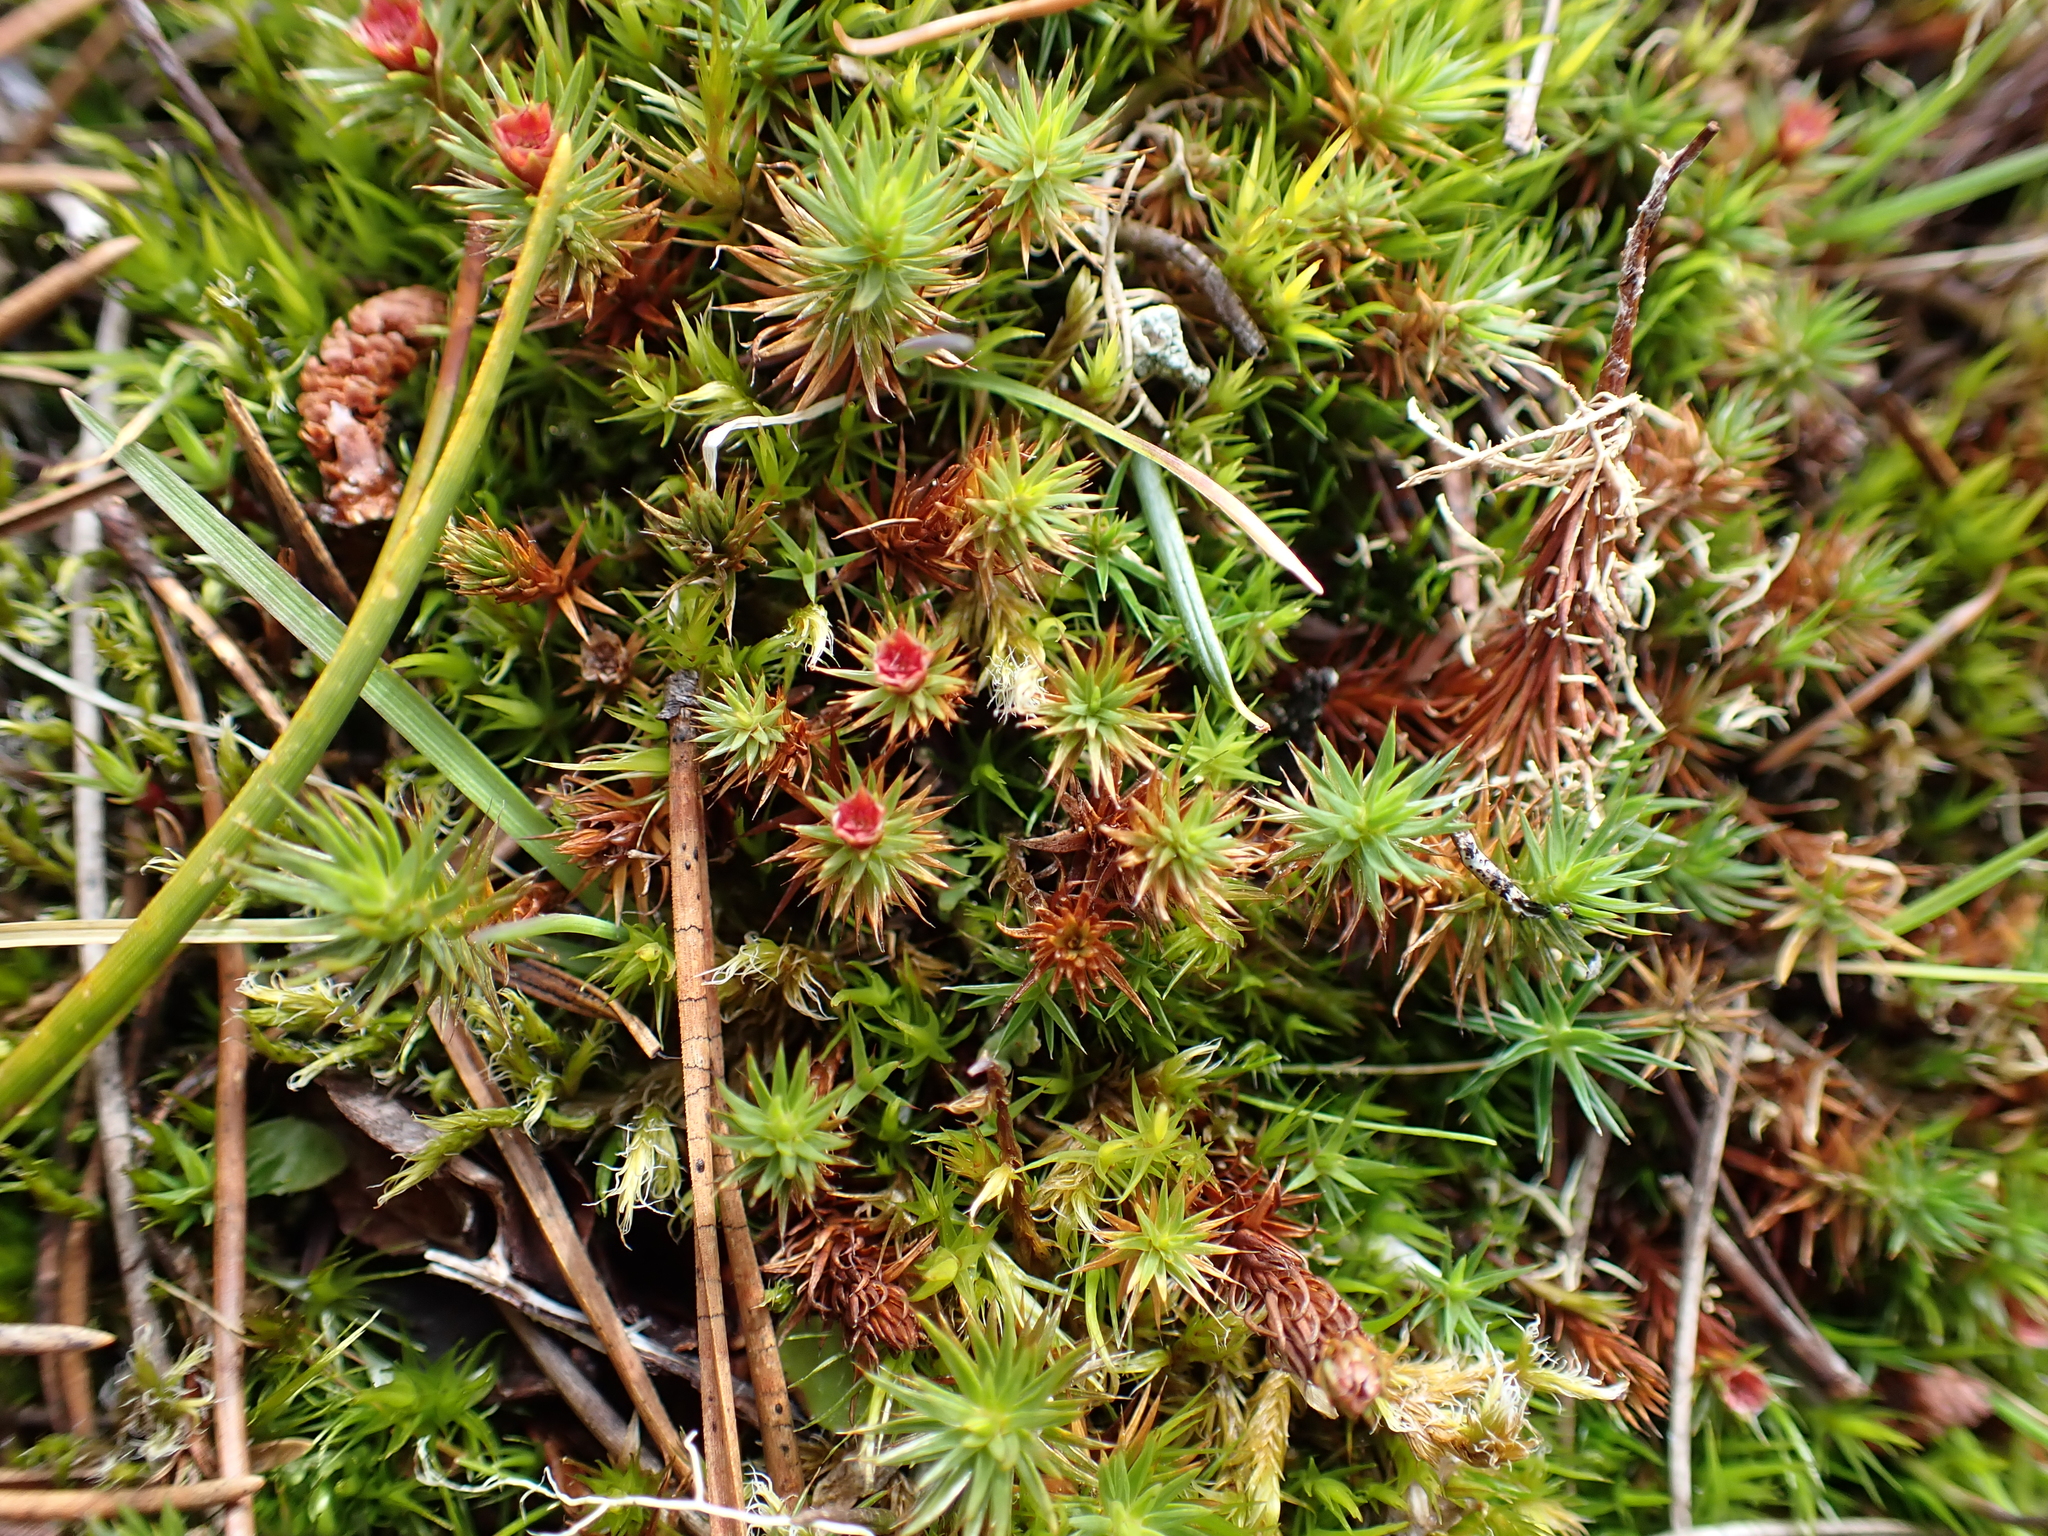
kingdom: Plantae
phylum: Bryophyta
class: Polytrichopsida
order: Polytrichales
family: Polytrichaceae
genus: Polytrichum
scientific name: Polytrichum juniperinum
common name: Juniper haircap moss
